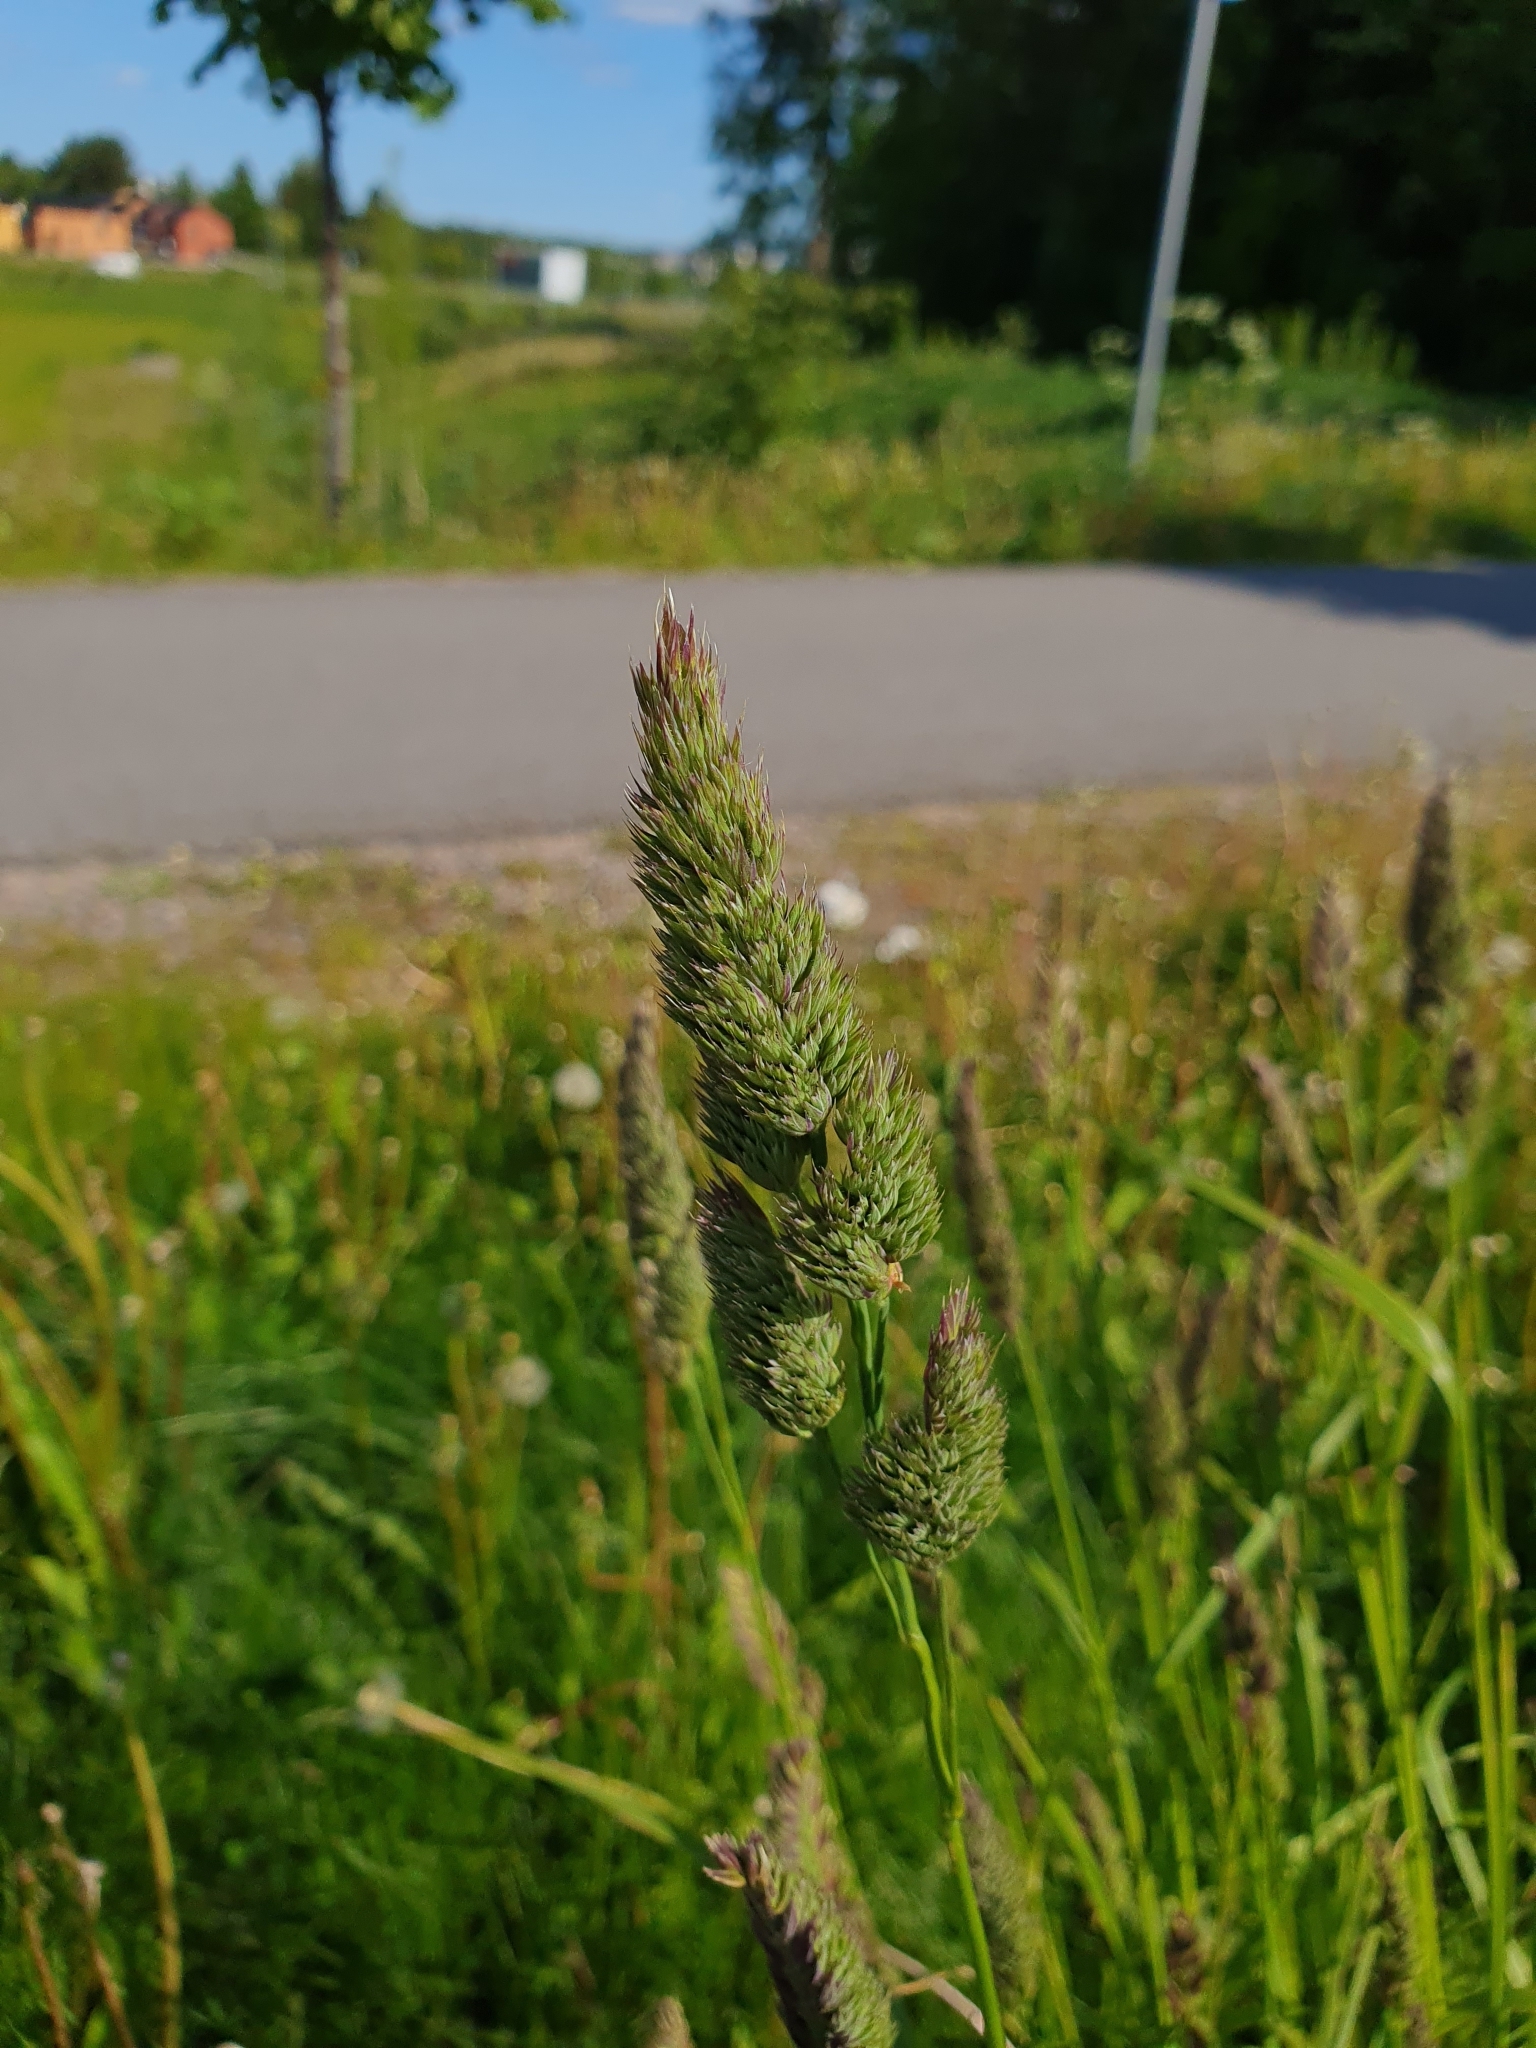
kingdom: Plantae
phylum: Tracheophyta
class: Liliopsida
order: Poales
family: Poaceae
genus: Dactylis
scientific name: Dactylis glomerata
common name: Orchardgrass
